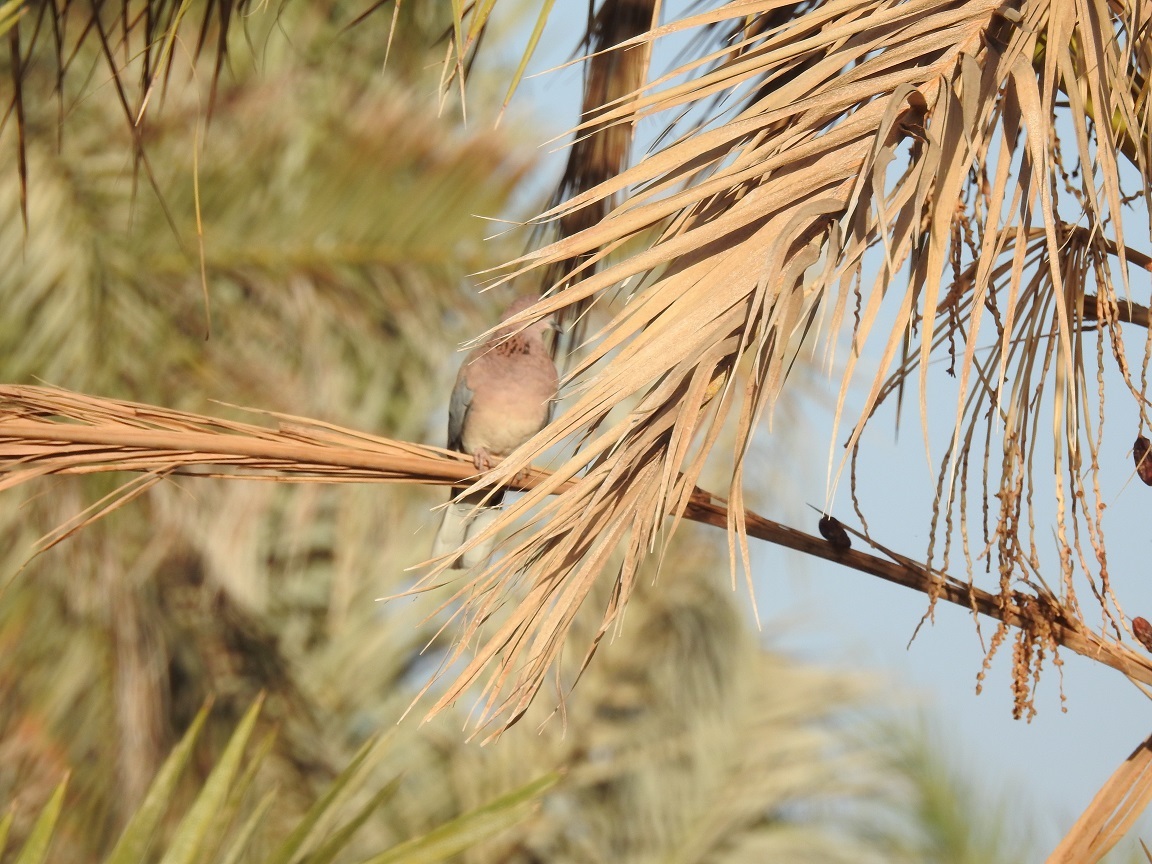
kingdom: Animalia
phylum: Chordata
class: Aves
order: Columbiformes
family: Columbidae
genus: Spilopelia
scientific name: Spilopelia senegalensis
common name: Laughing dove
